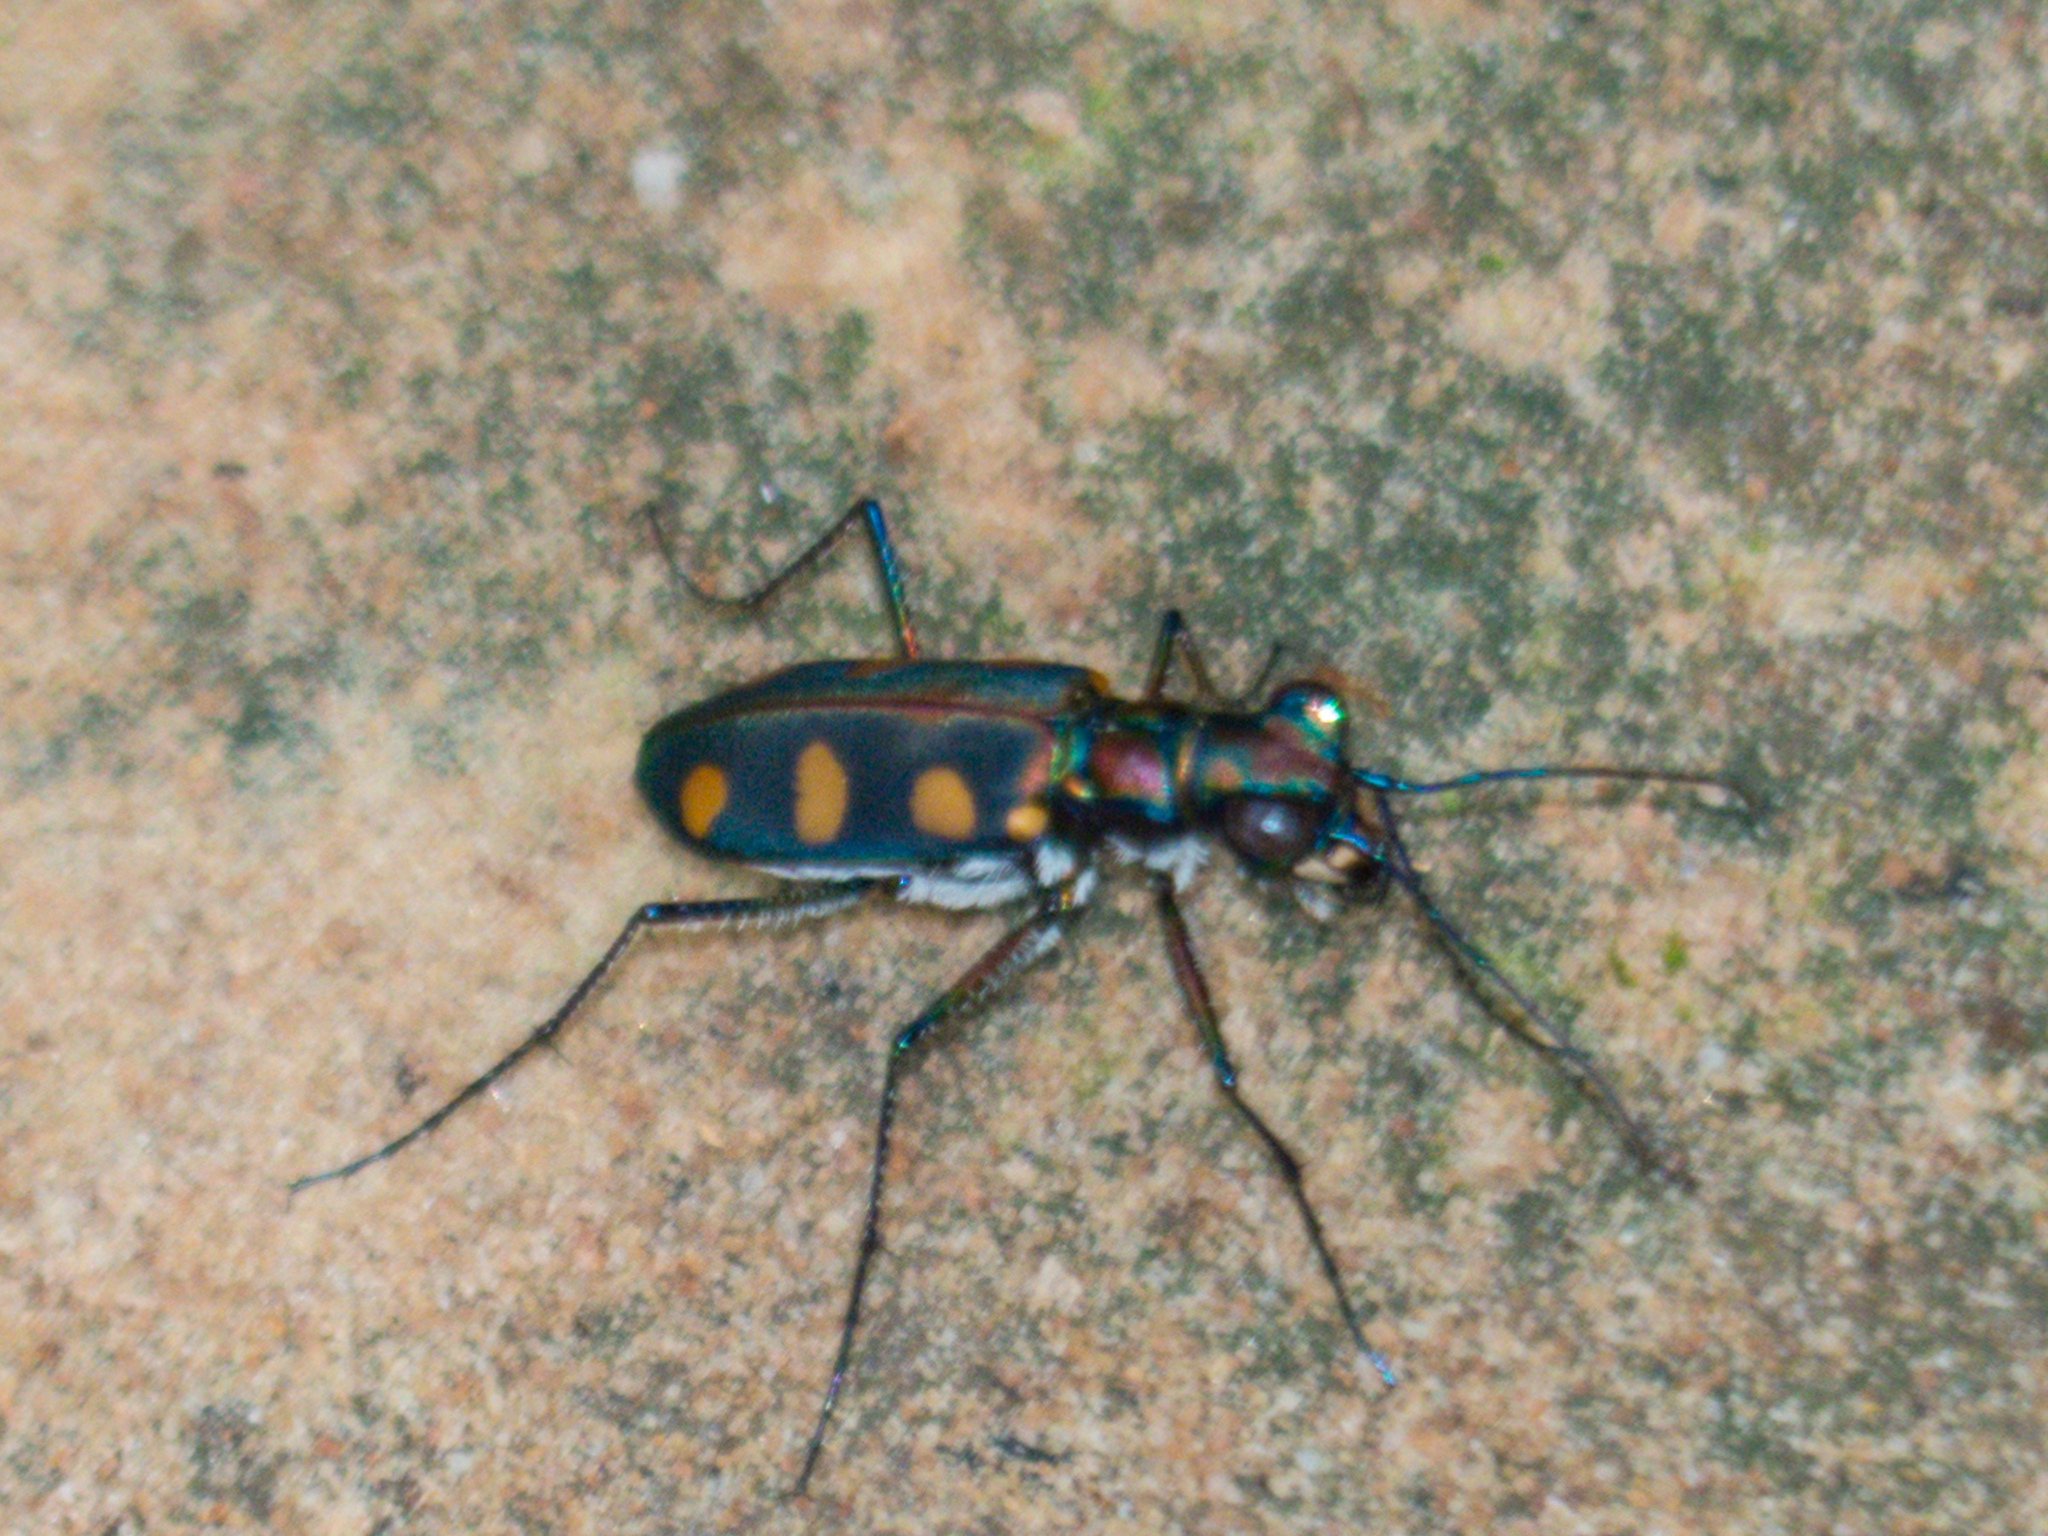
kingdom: Animalia
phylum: Arthropoda
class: Insecta
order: Coleoptera
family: Carabidae
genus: Cicindela
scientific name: Cicindela juxtata
